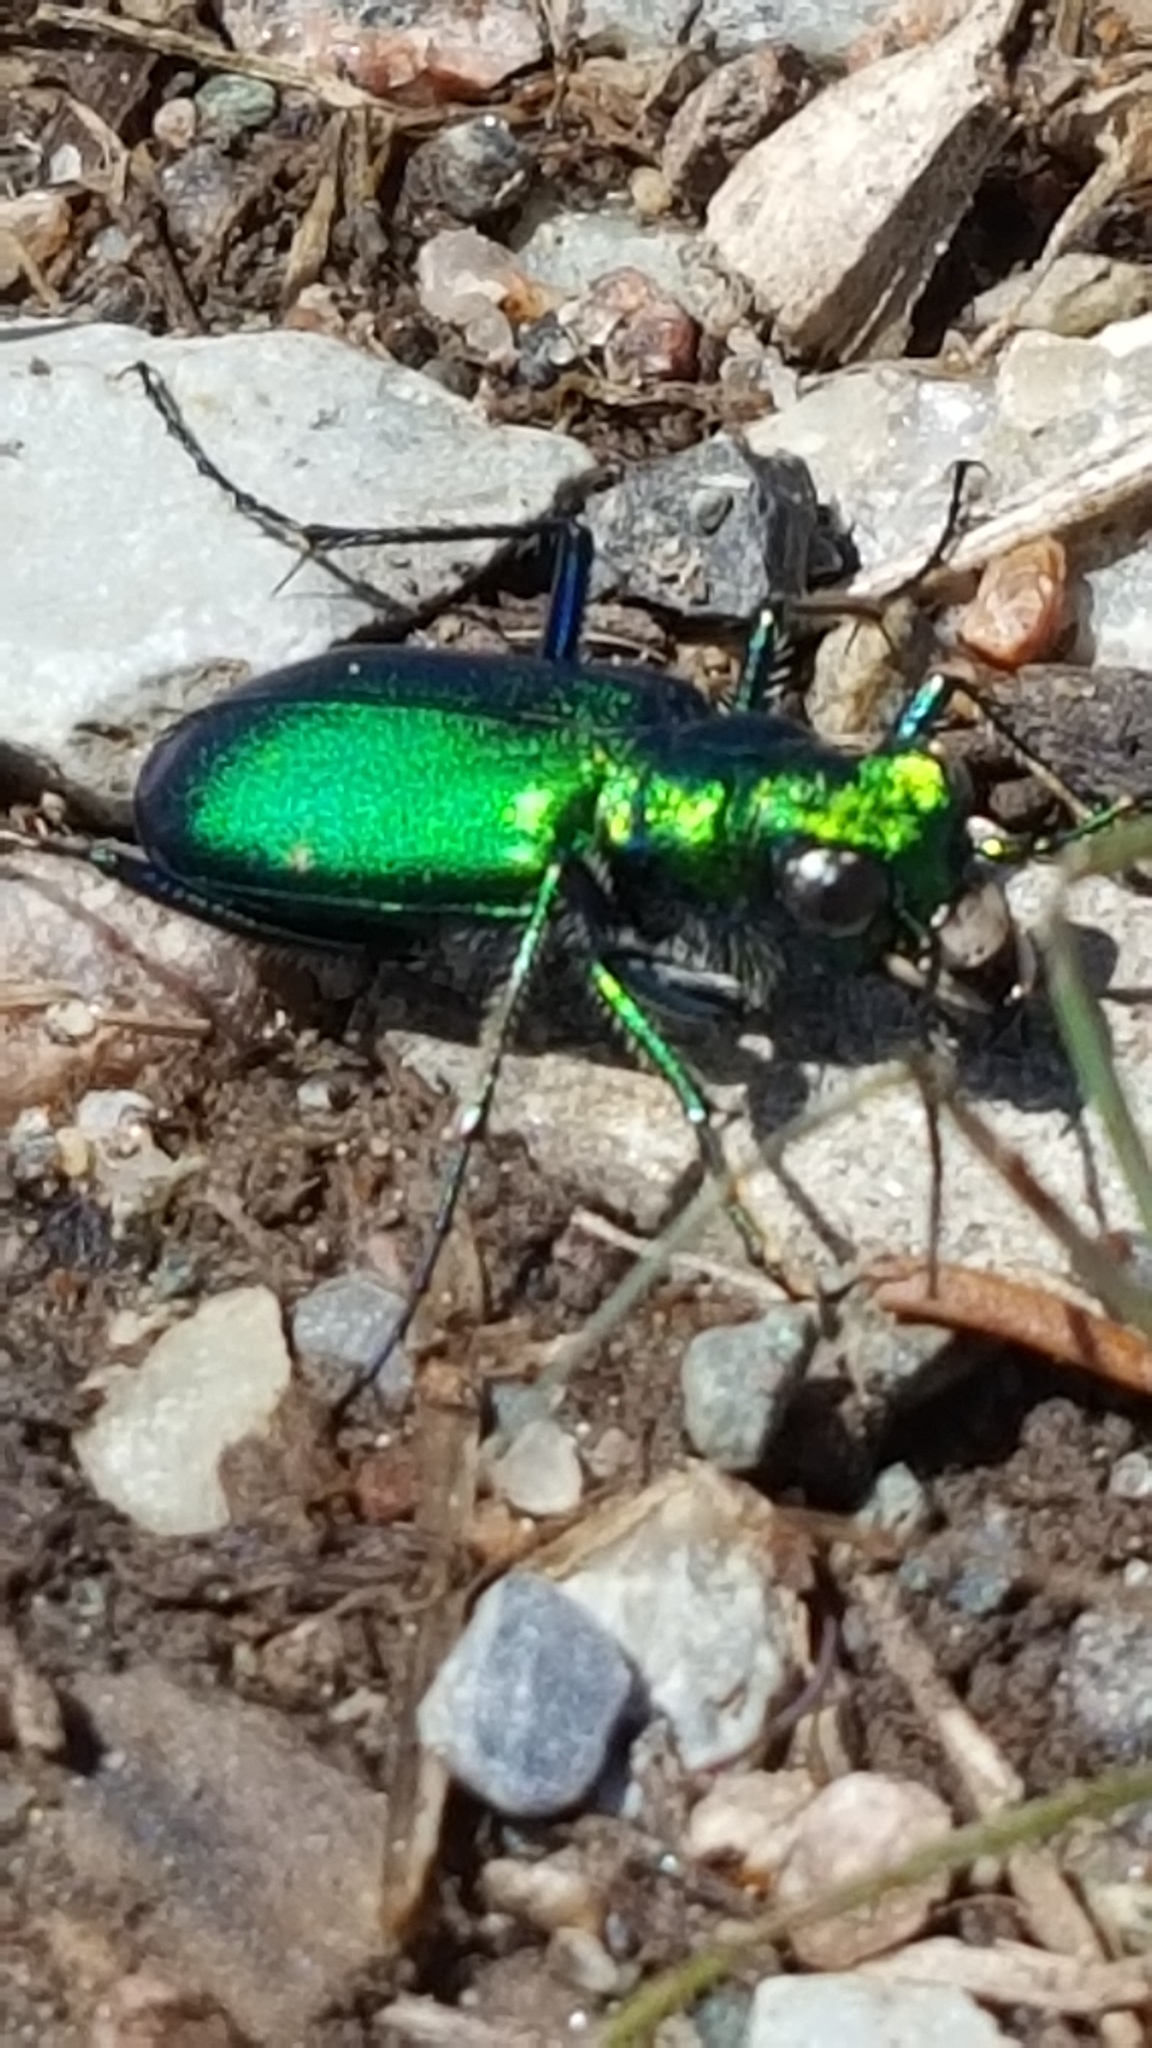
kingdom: Animalia
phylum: Arthropoda
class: Insecta
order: Coleoptera
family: Carabidae
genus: Cicindela
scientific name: Cicindela denikei
